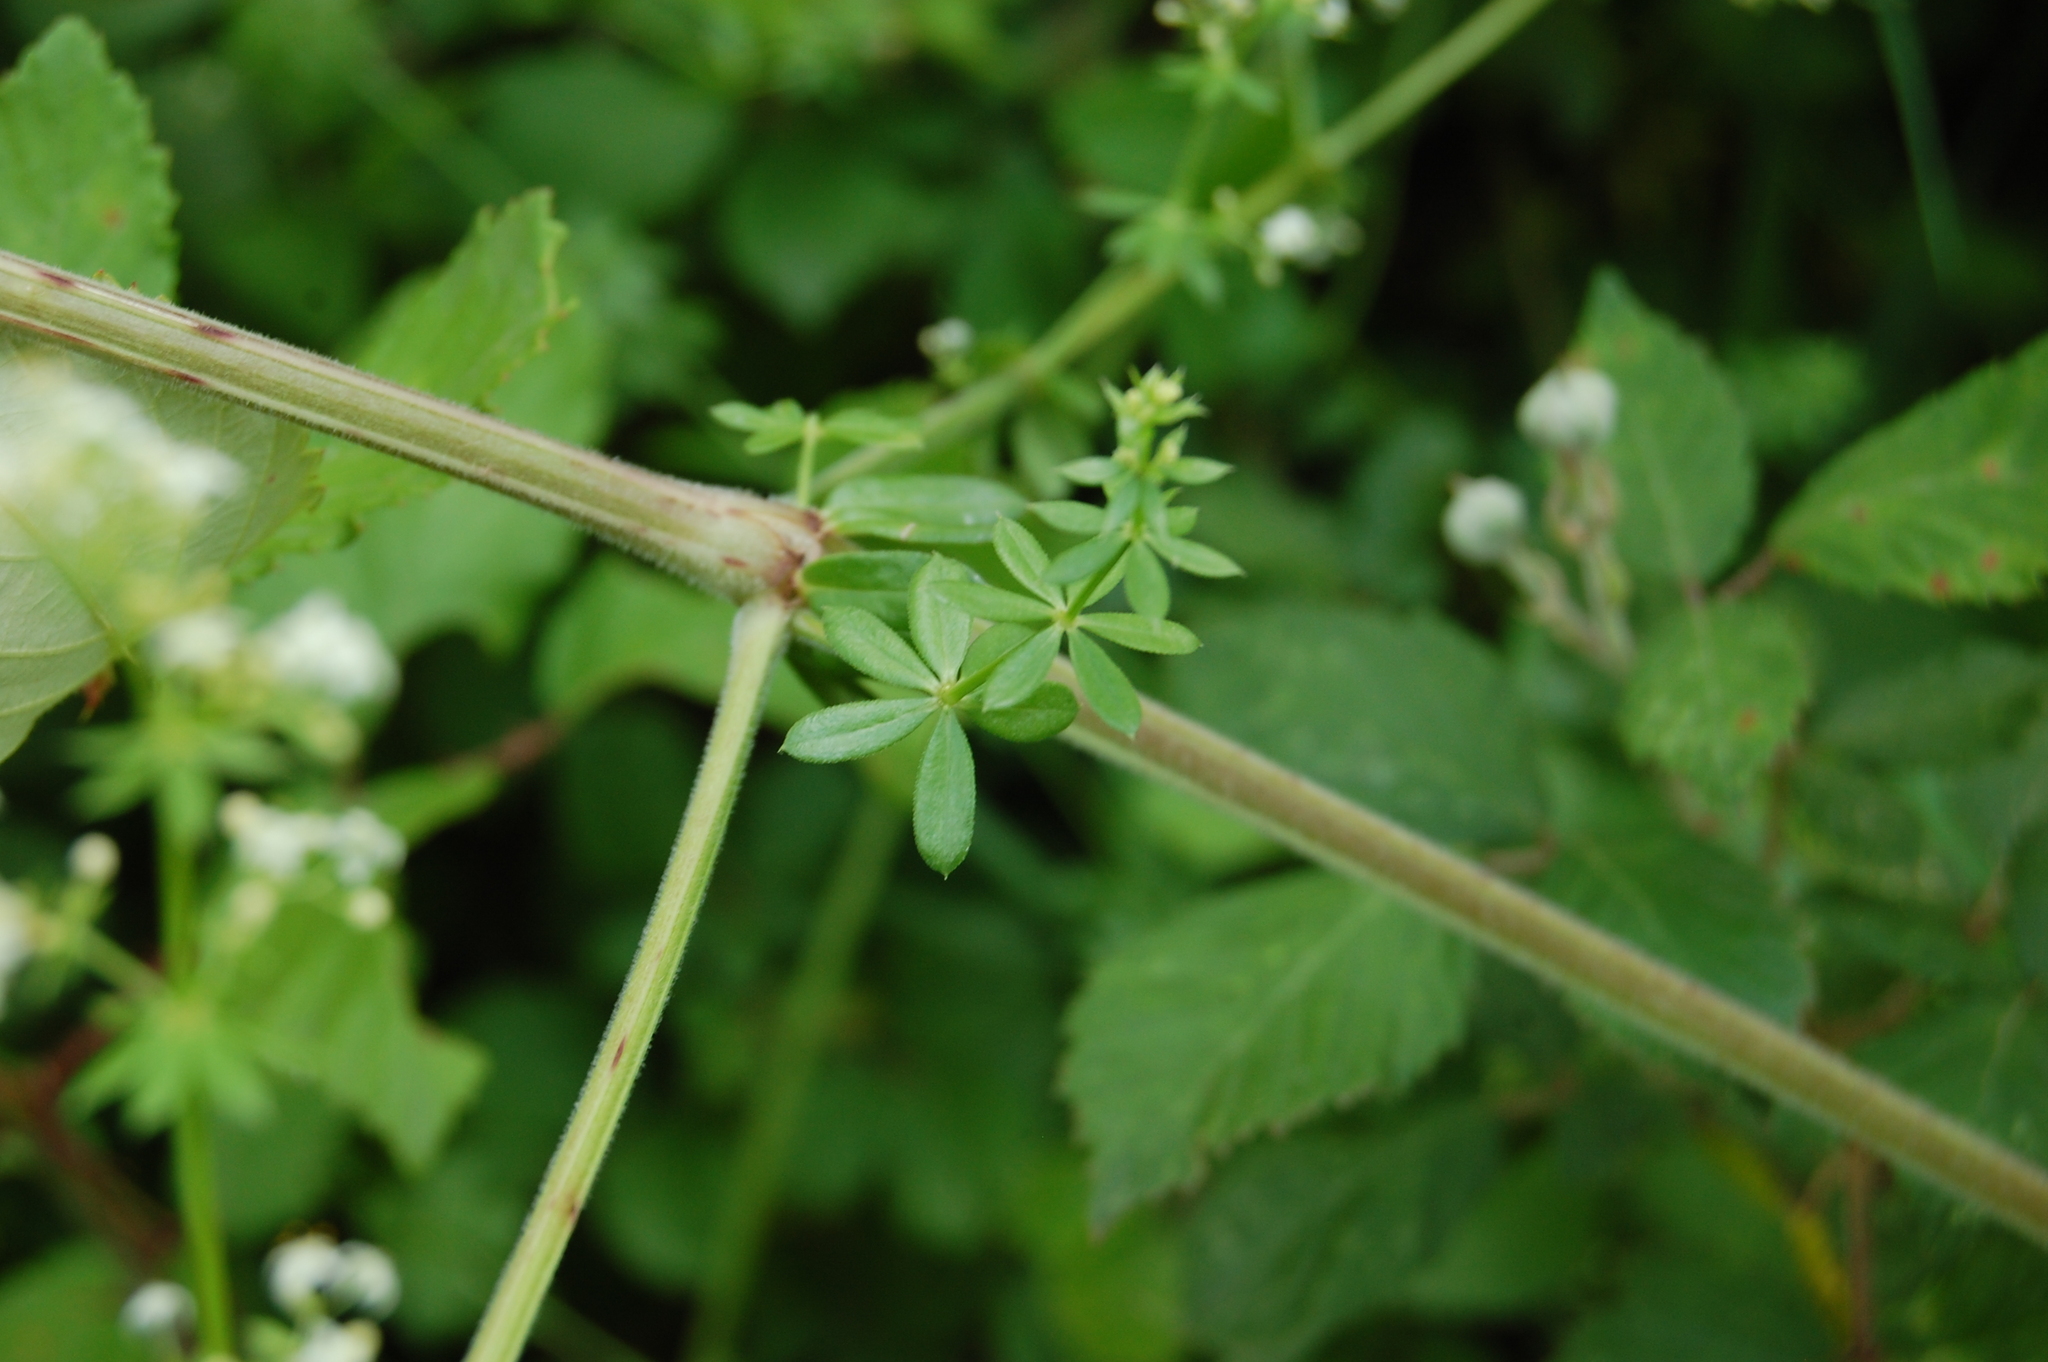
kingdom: Plantae
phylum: Tracheophyta
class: Magnoliopsida
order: Gentianales
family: Rubiaceae
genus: Galium
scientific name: Galium album
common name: White bedstraw
